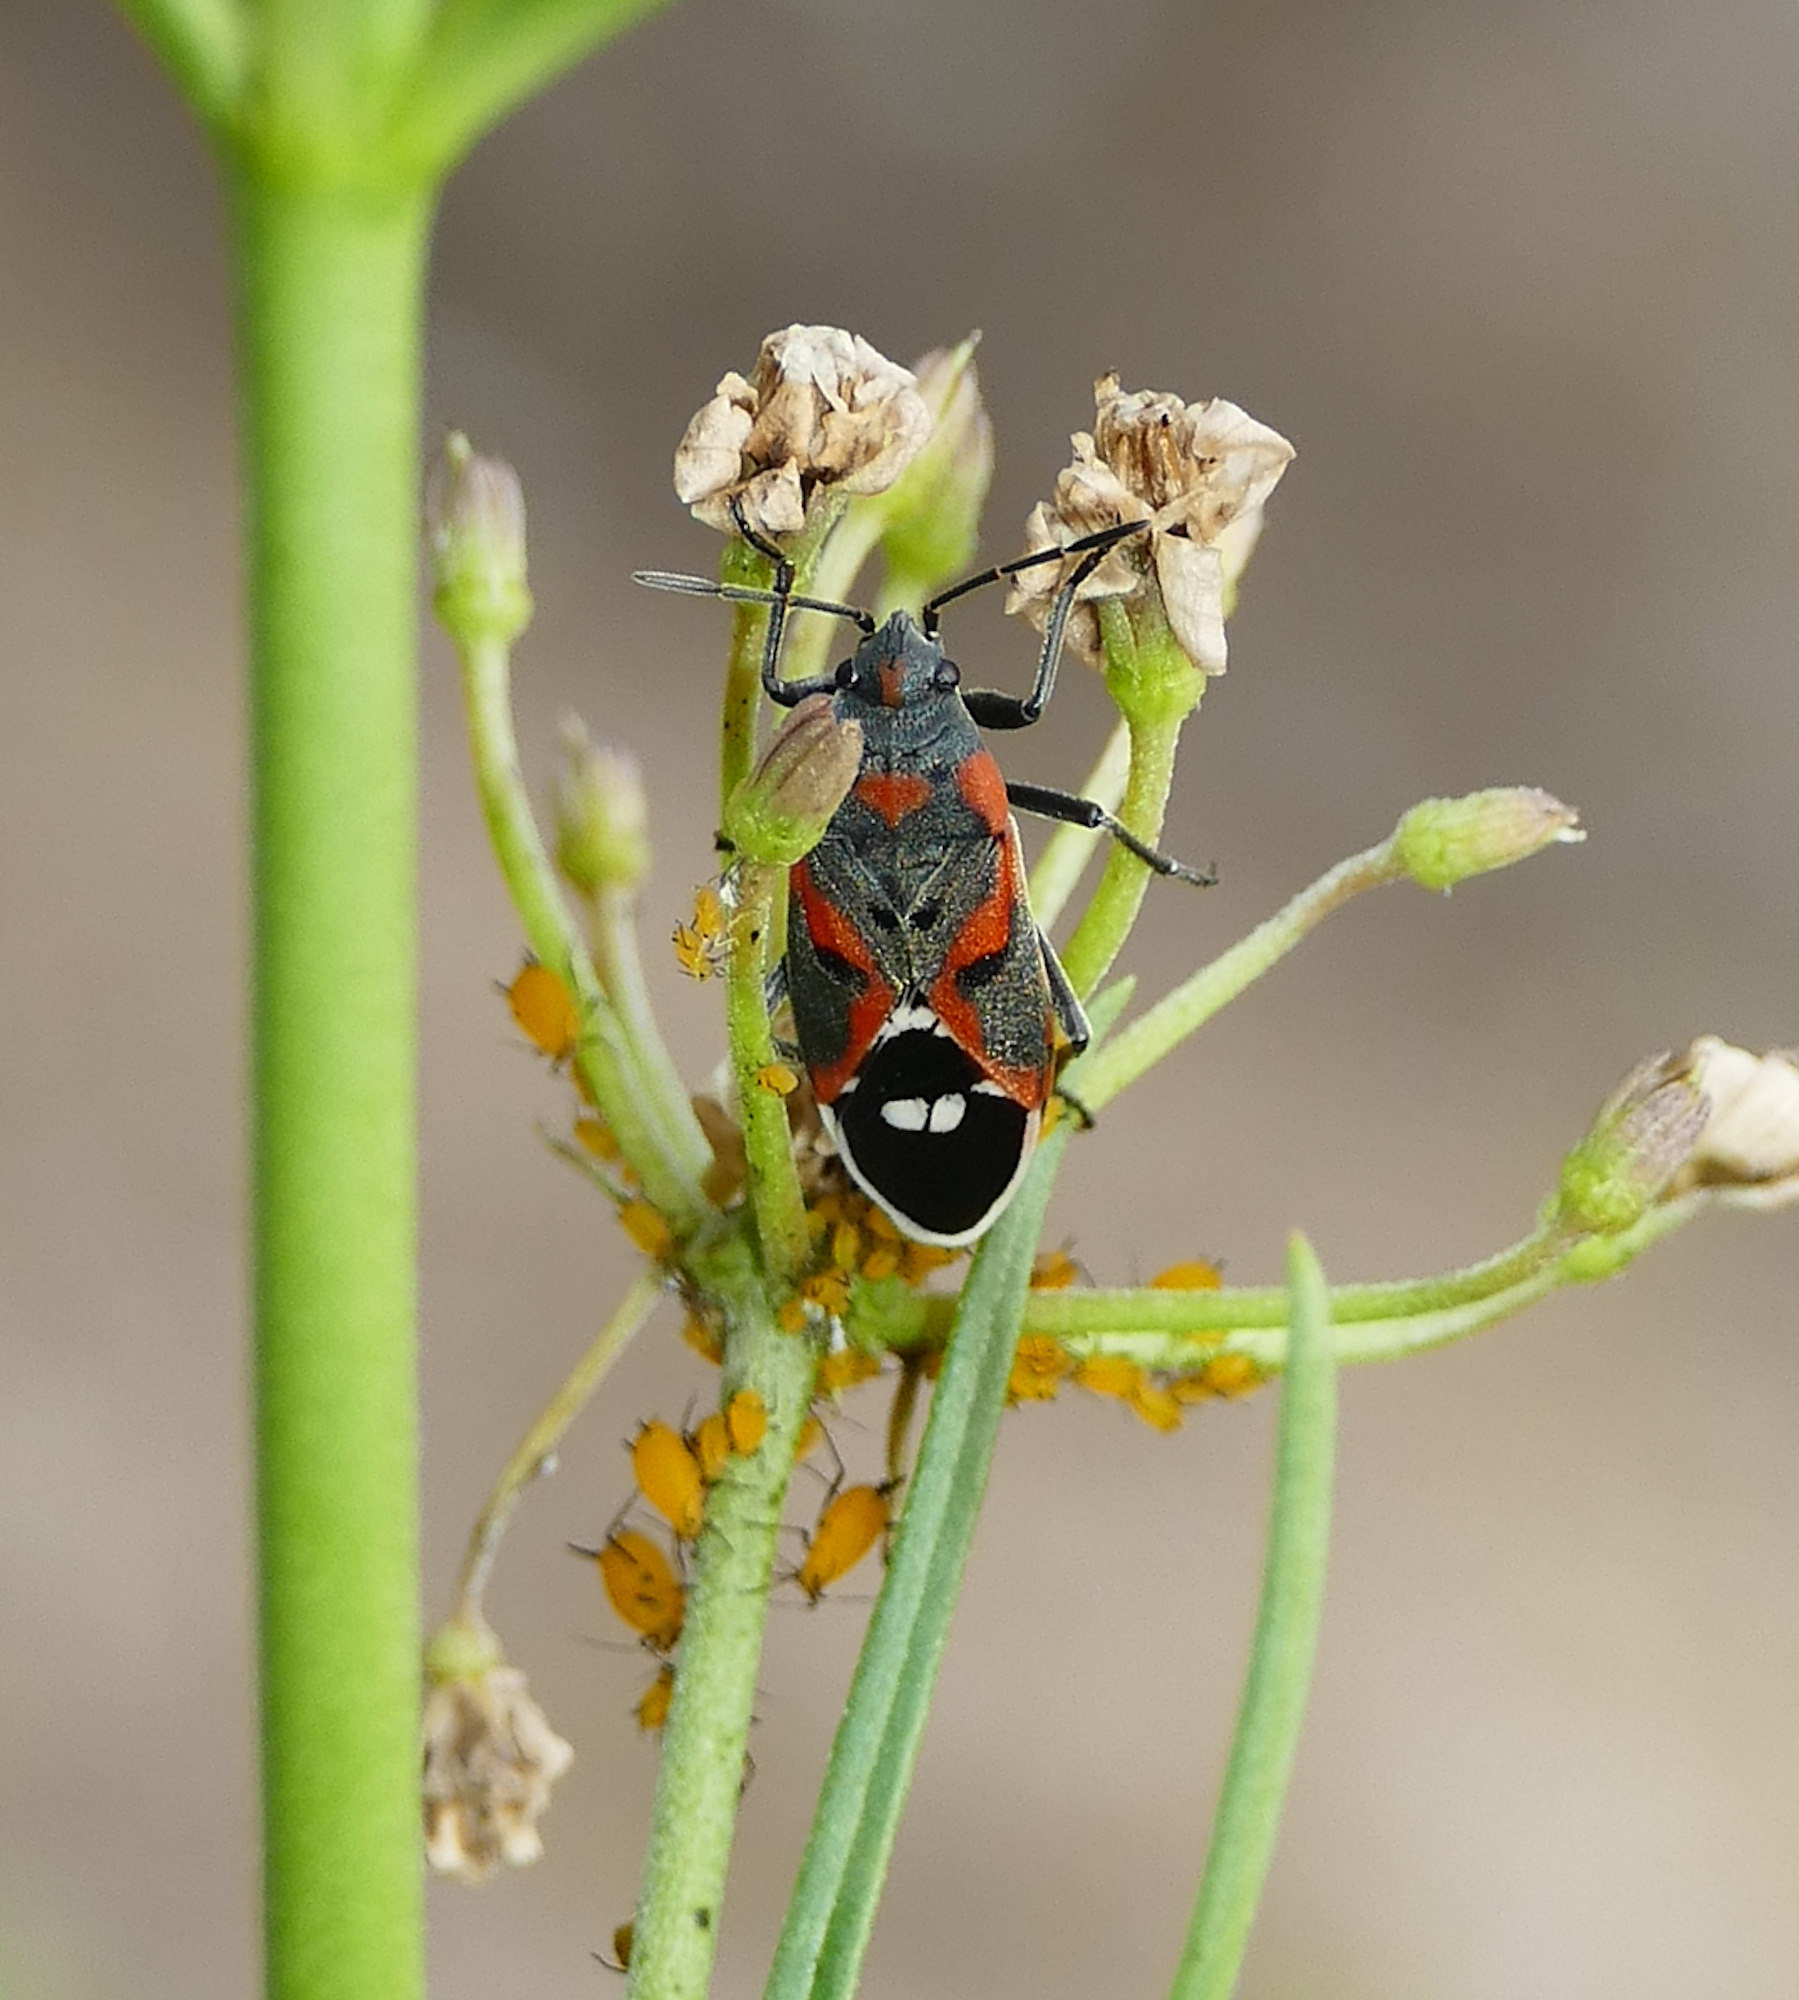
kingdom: Animalia
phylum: Arthropoda
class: Insecta
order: Hemiptera
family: Lygaeidae
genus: Lygaeus
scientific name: Lygaeus kalmii
